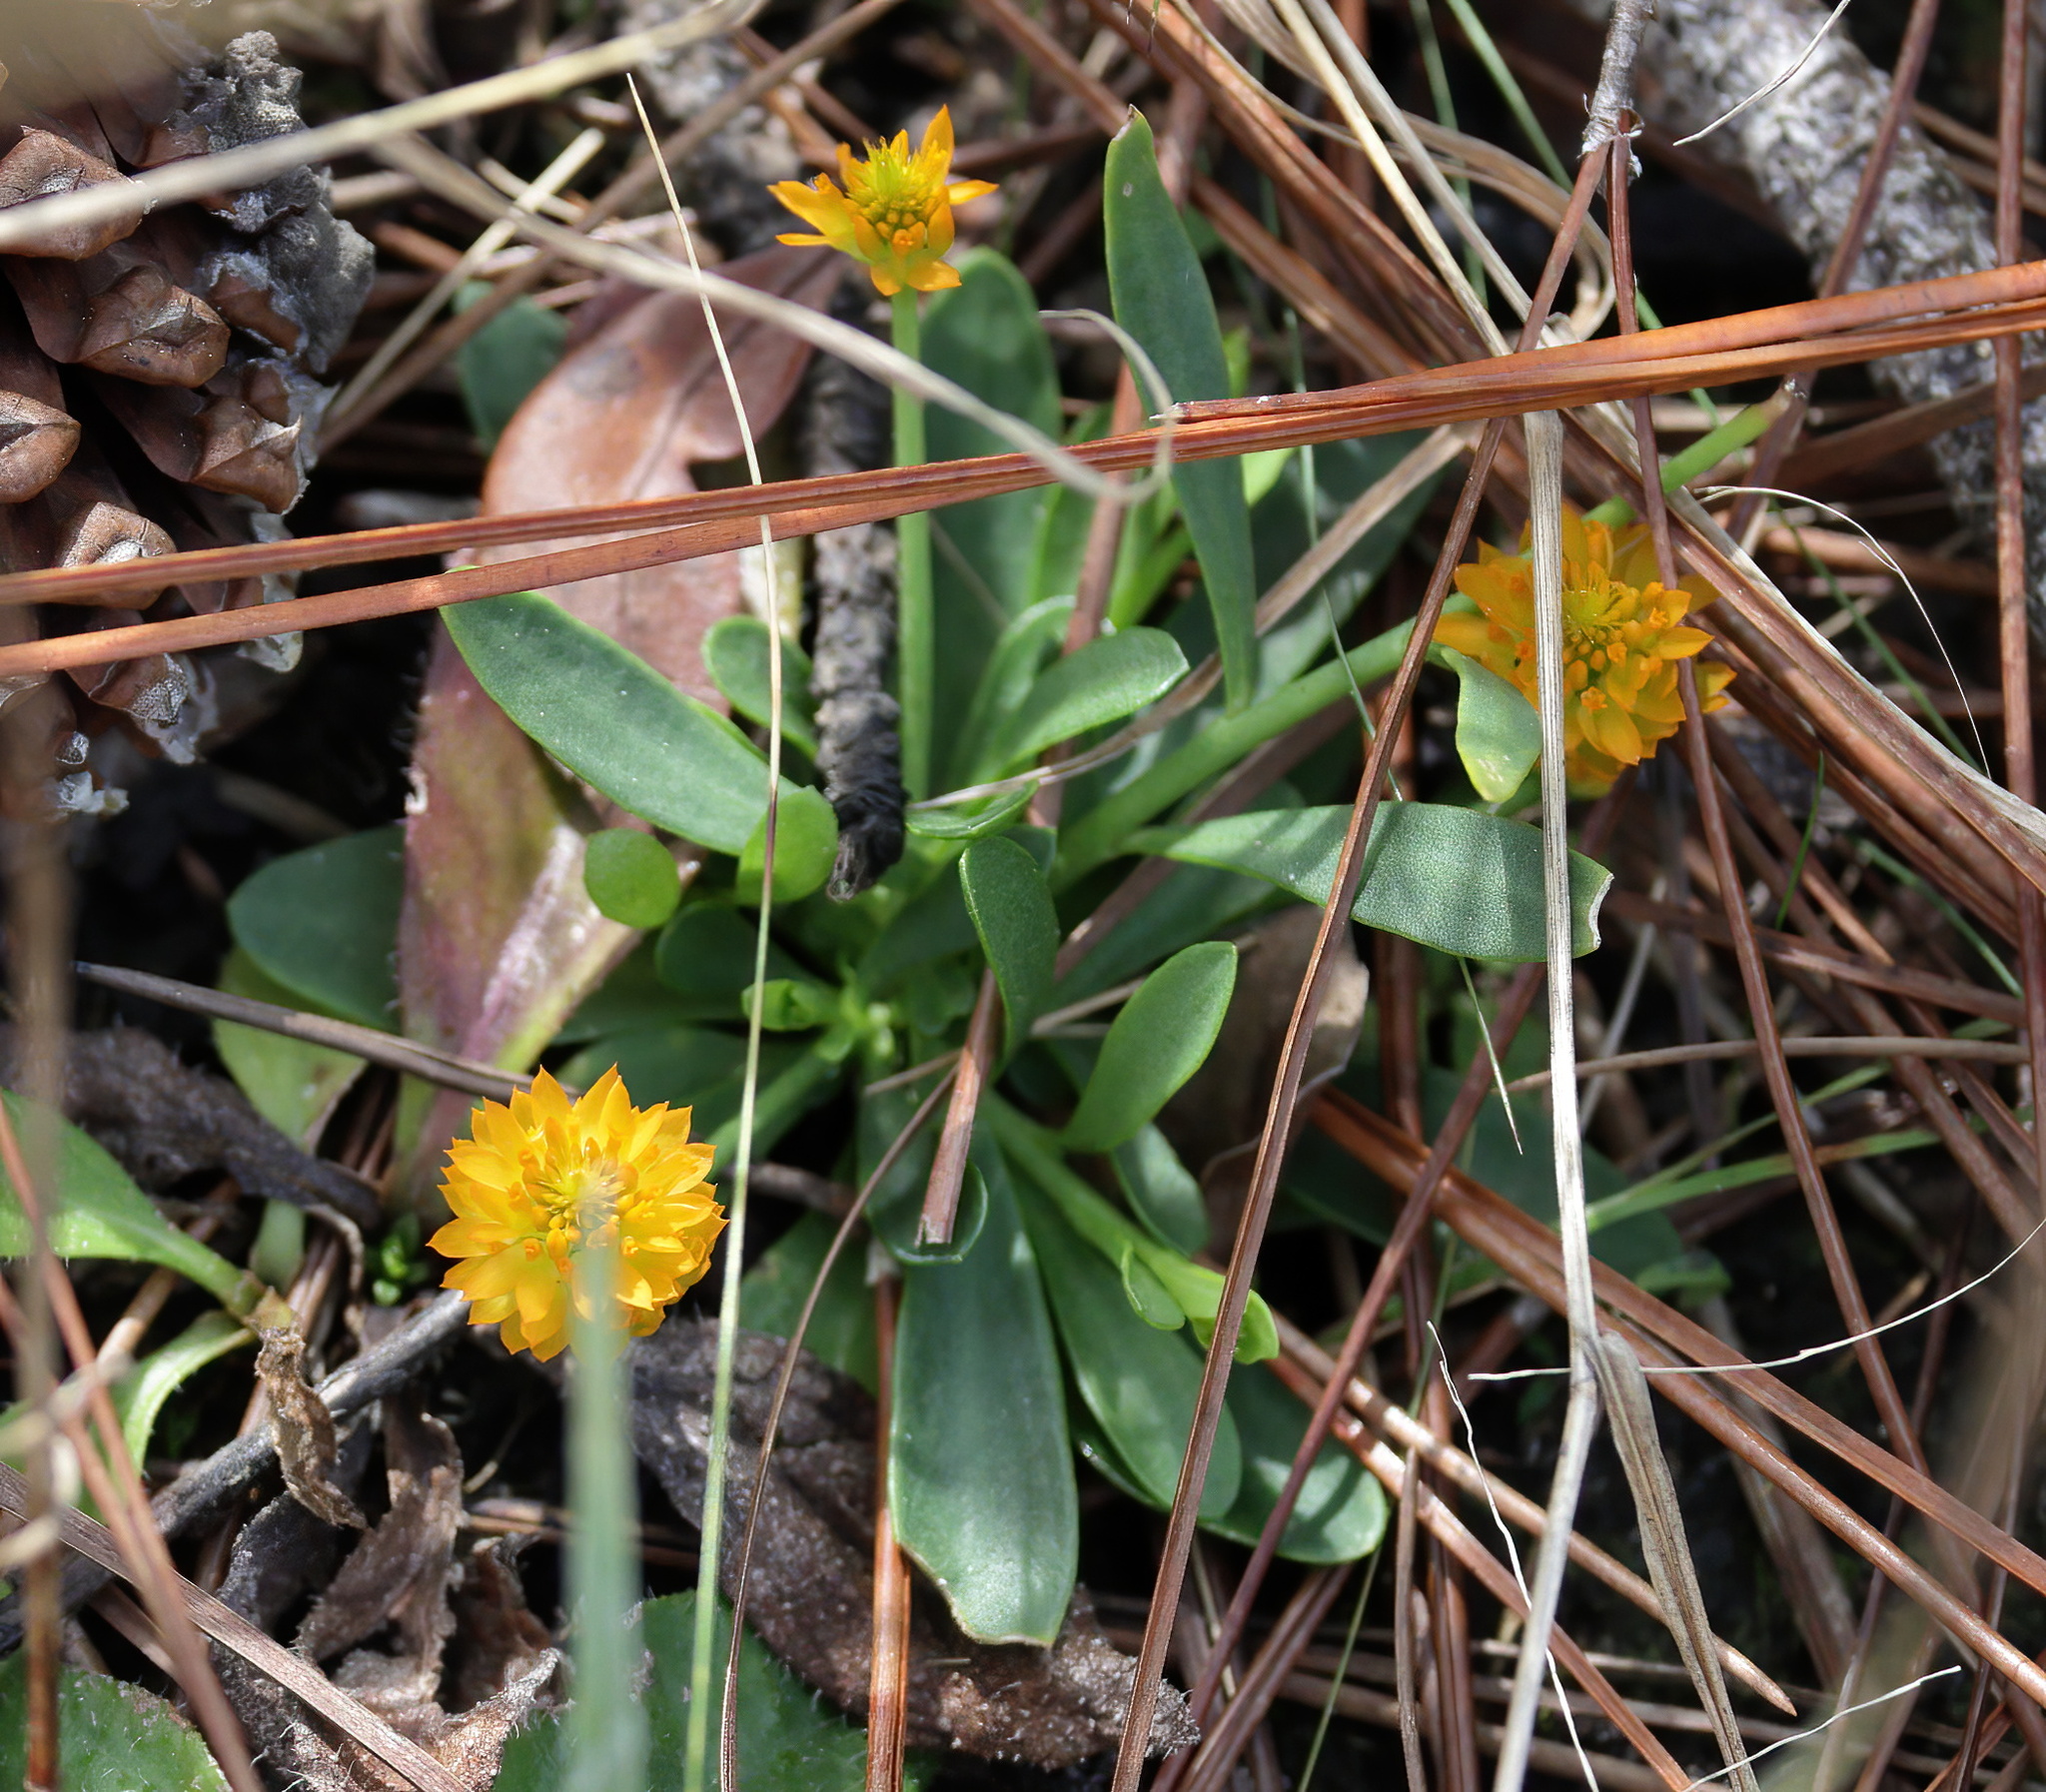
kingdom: Plantae
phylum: Tracheophyta
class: Magnoliopsida
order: Fabales
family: Polygalaceae
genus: Polygala
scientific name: Polygala lutea
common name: Orange milkwort
